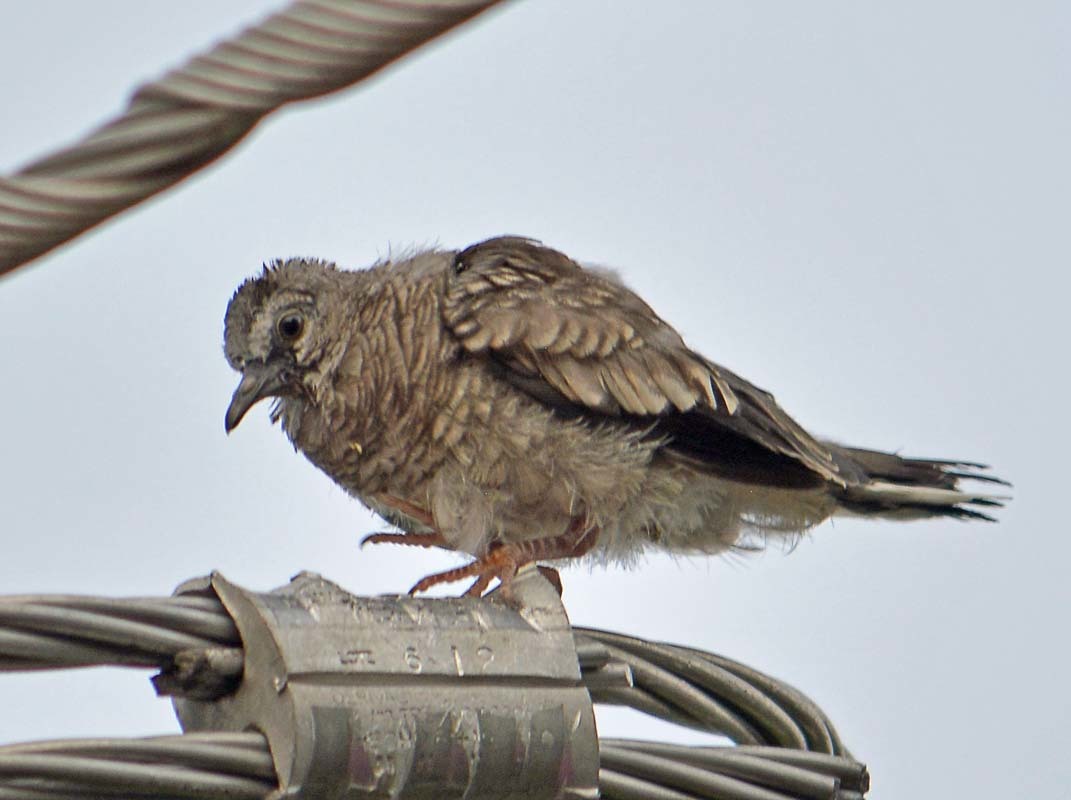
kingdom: Animalia
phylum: Chordata
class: Aves
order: Columbiformes
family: Columbidae
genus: Columbina
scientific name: Columbina inca
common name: Inca dove
